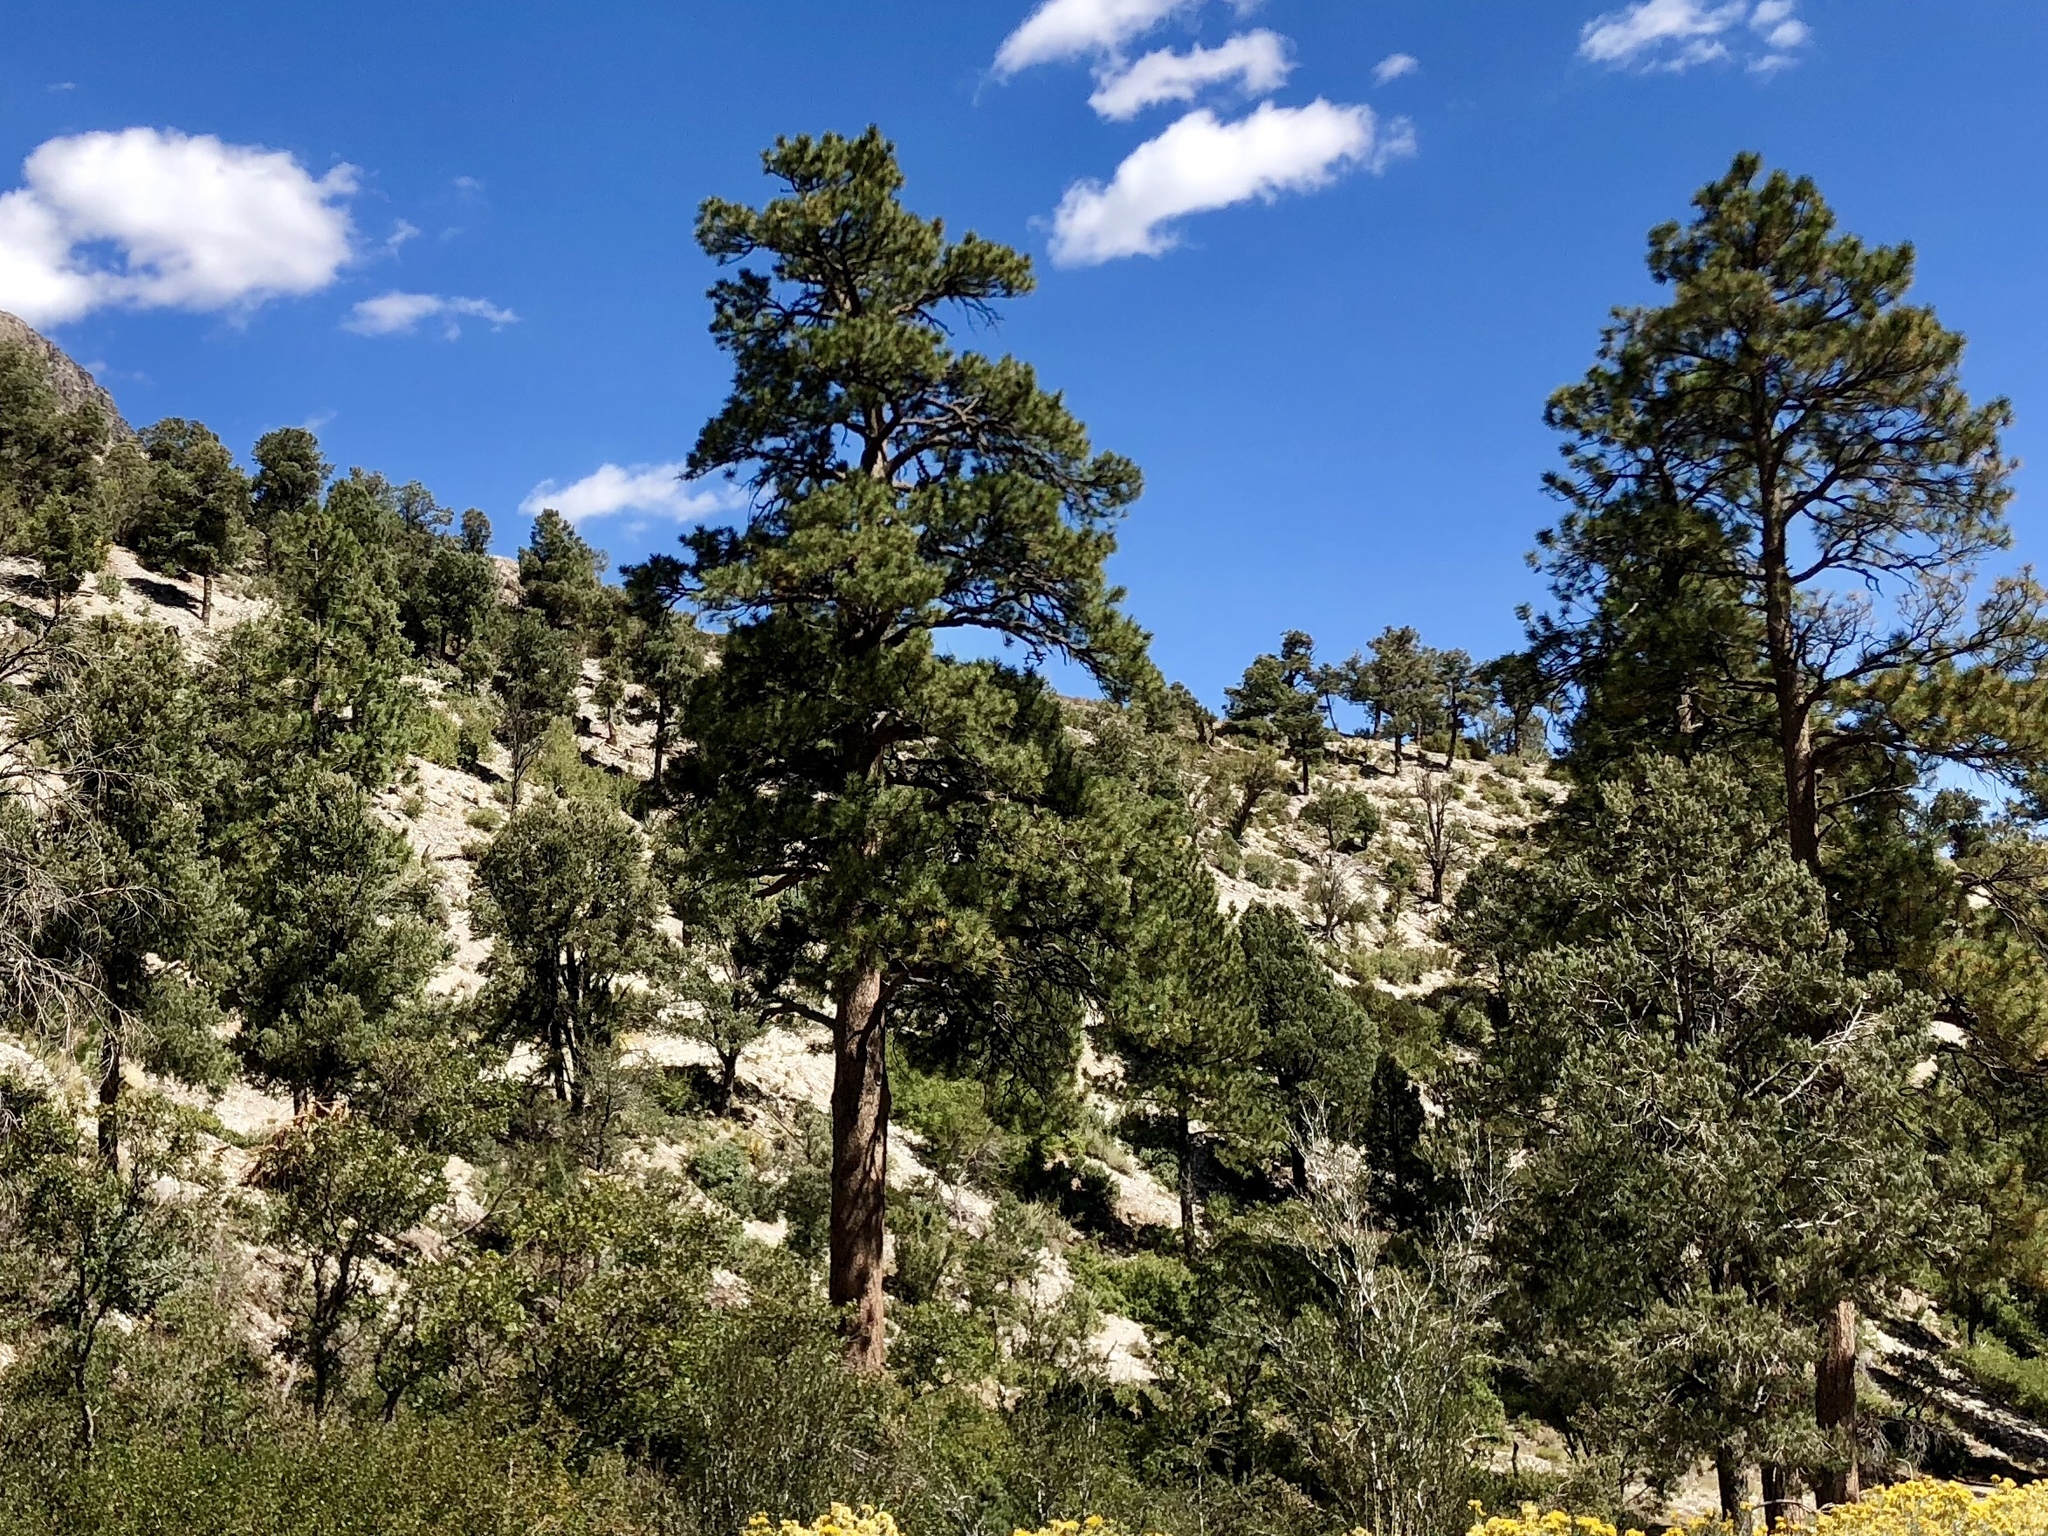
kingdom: Plantae
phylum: Tracheophyta
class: Pinopsida
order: Pinales
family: Pinaceae
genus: Pinus
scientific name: Pinus ponderosa
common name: Western yellow-pine
